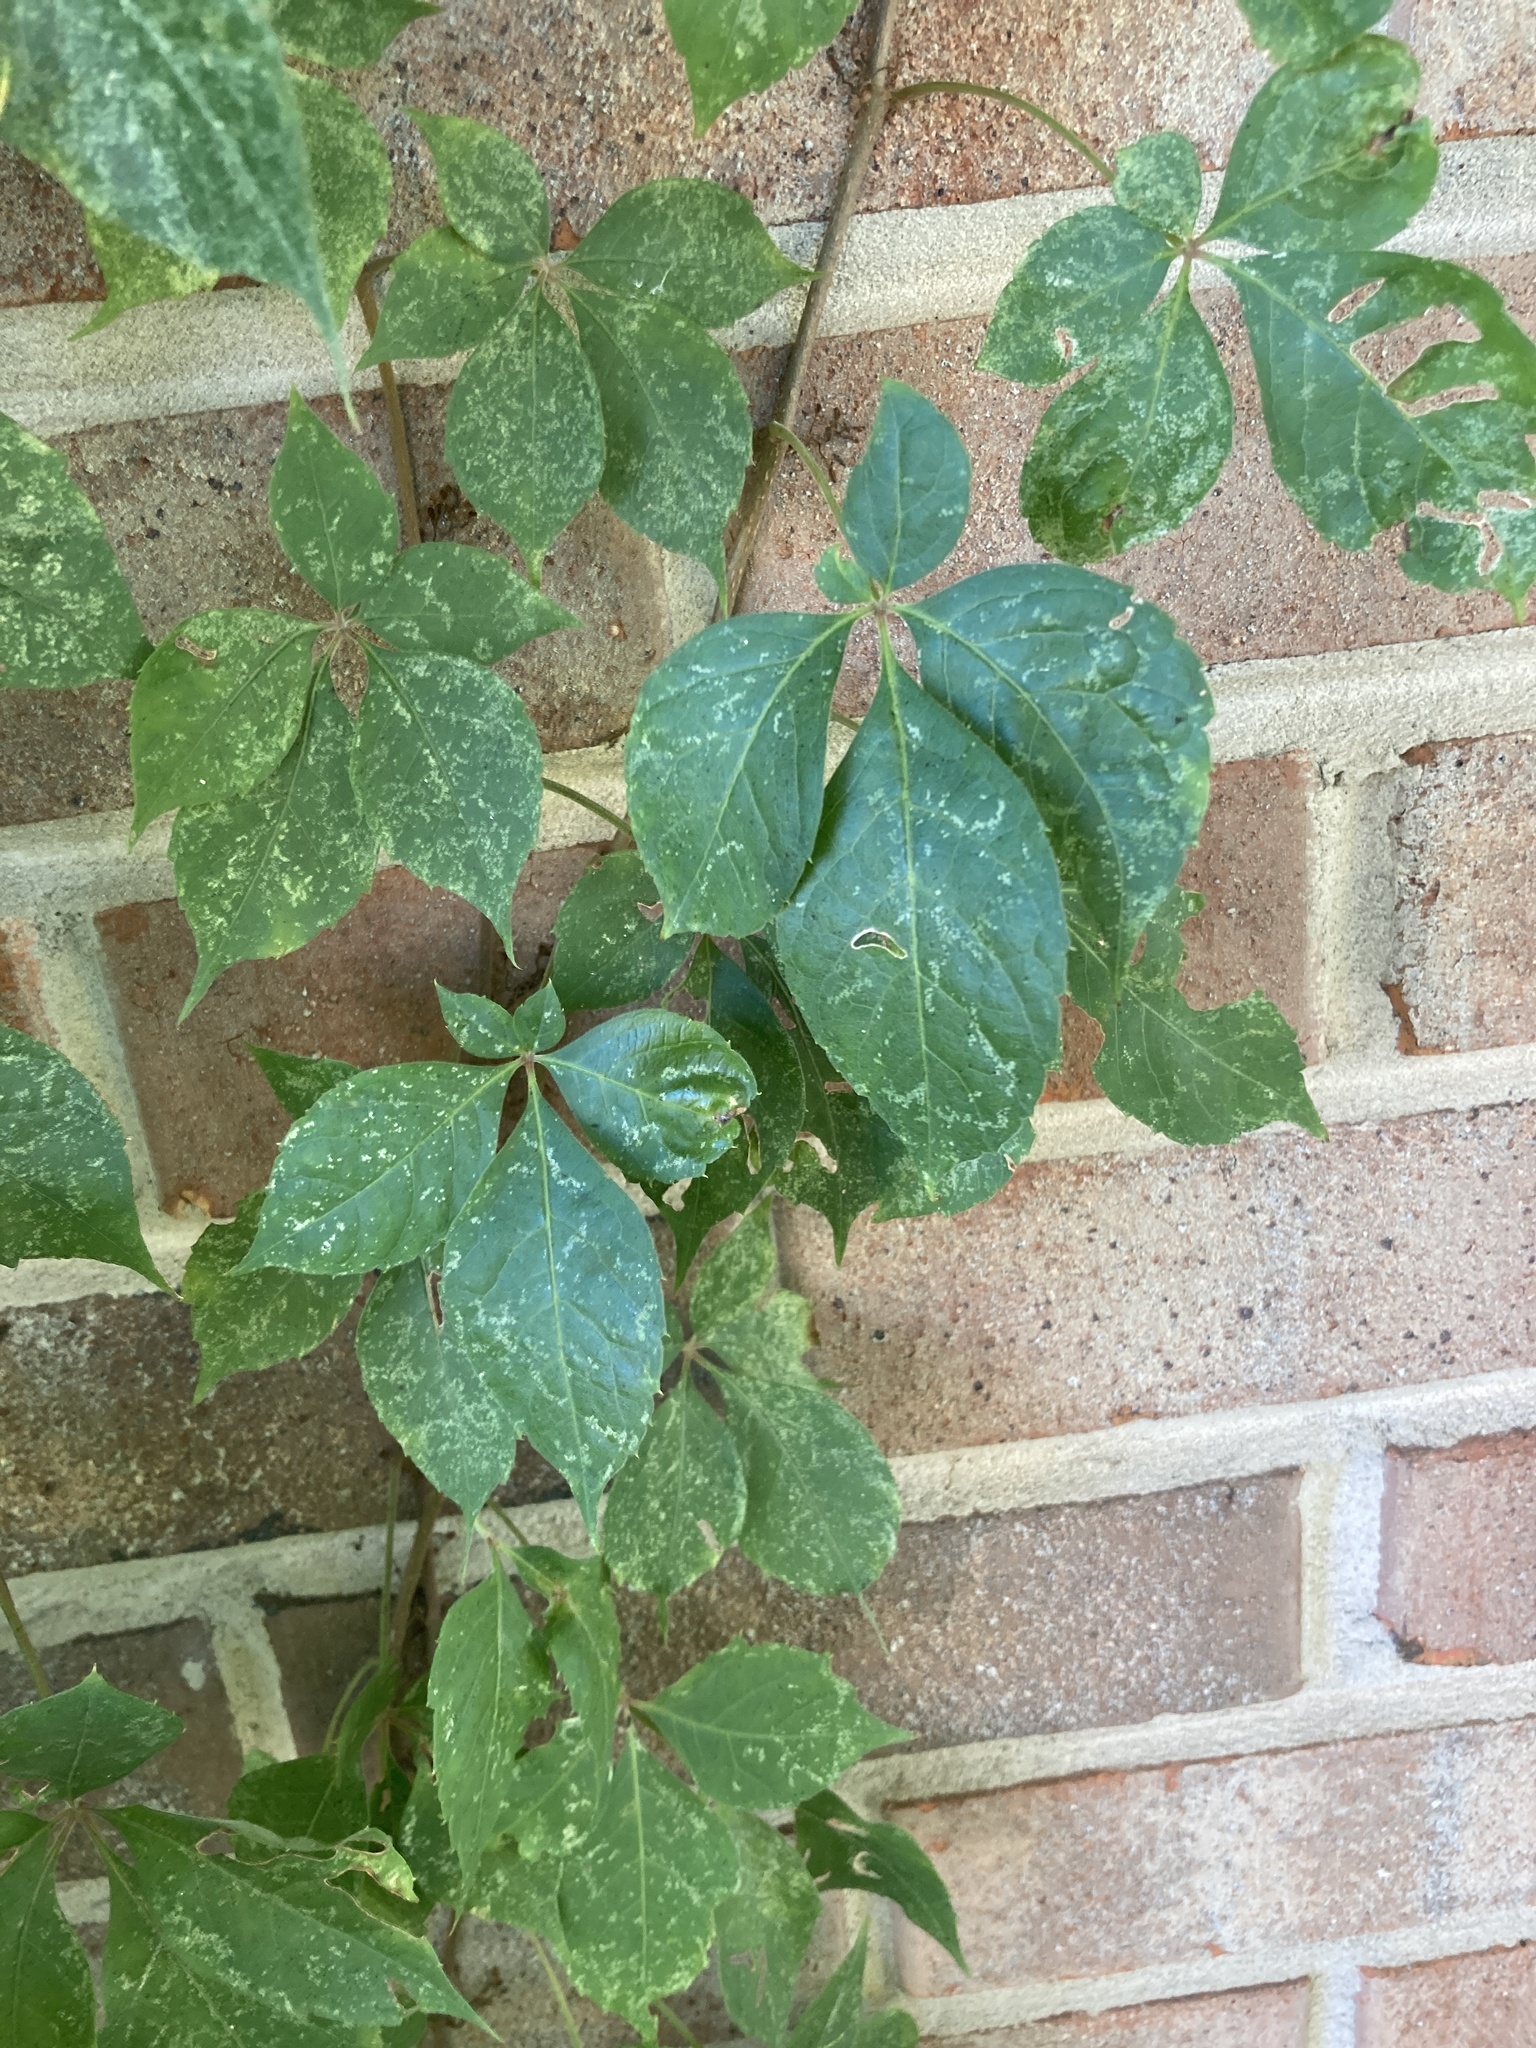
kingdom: Plantae
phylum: Tracheophyta
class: Magnoliopsida
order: Vitales
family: Vitaceae
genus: Parthenocissus
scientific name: Parthenocissus quinquefolia
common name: Virginia-creeper
